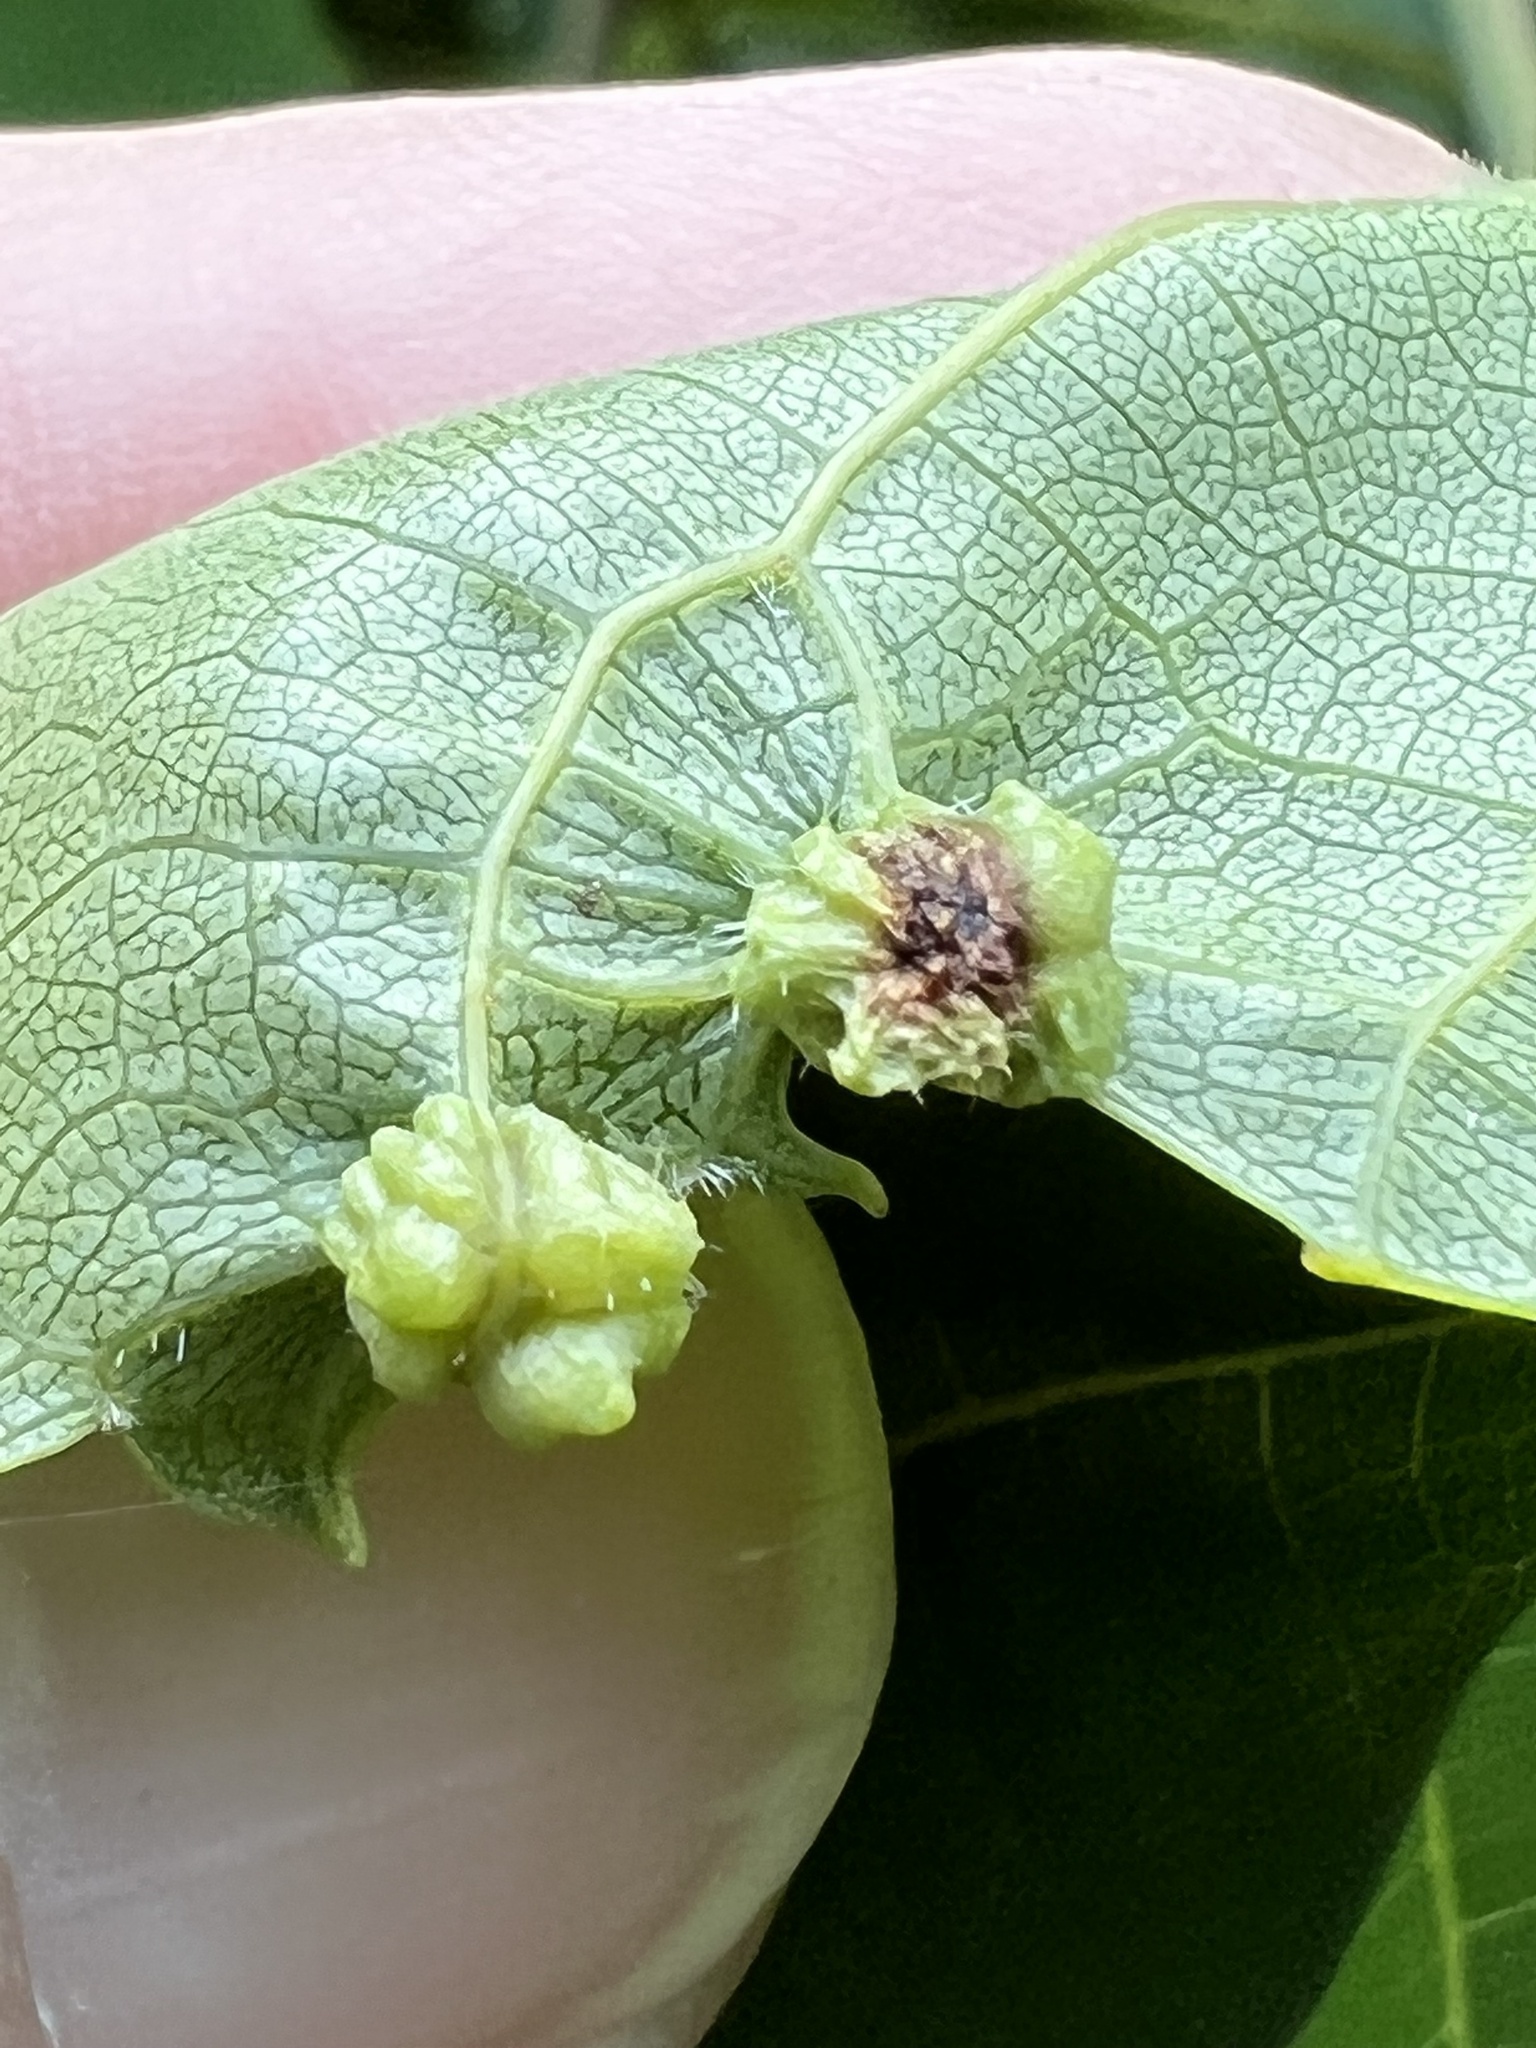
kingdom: Animalia
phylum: Arthropoda
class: Insecta
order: Hemiptera
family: Phylloxeridae
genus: Daktulosphaira
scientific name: Daktulosphaira vitifoliae
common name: Grape phylloxera
